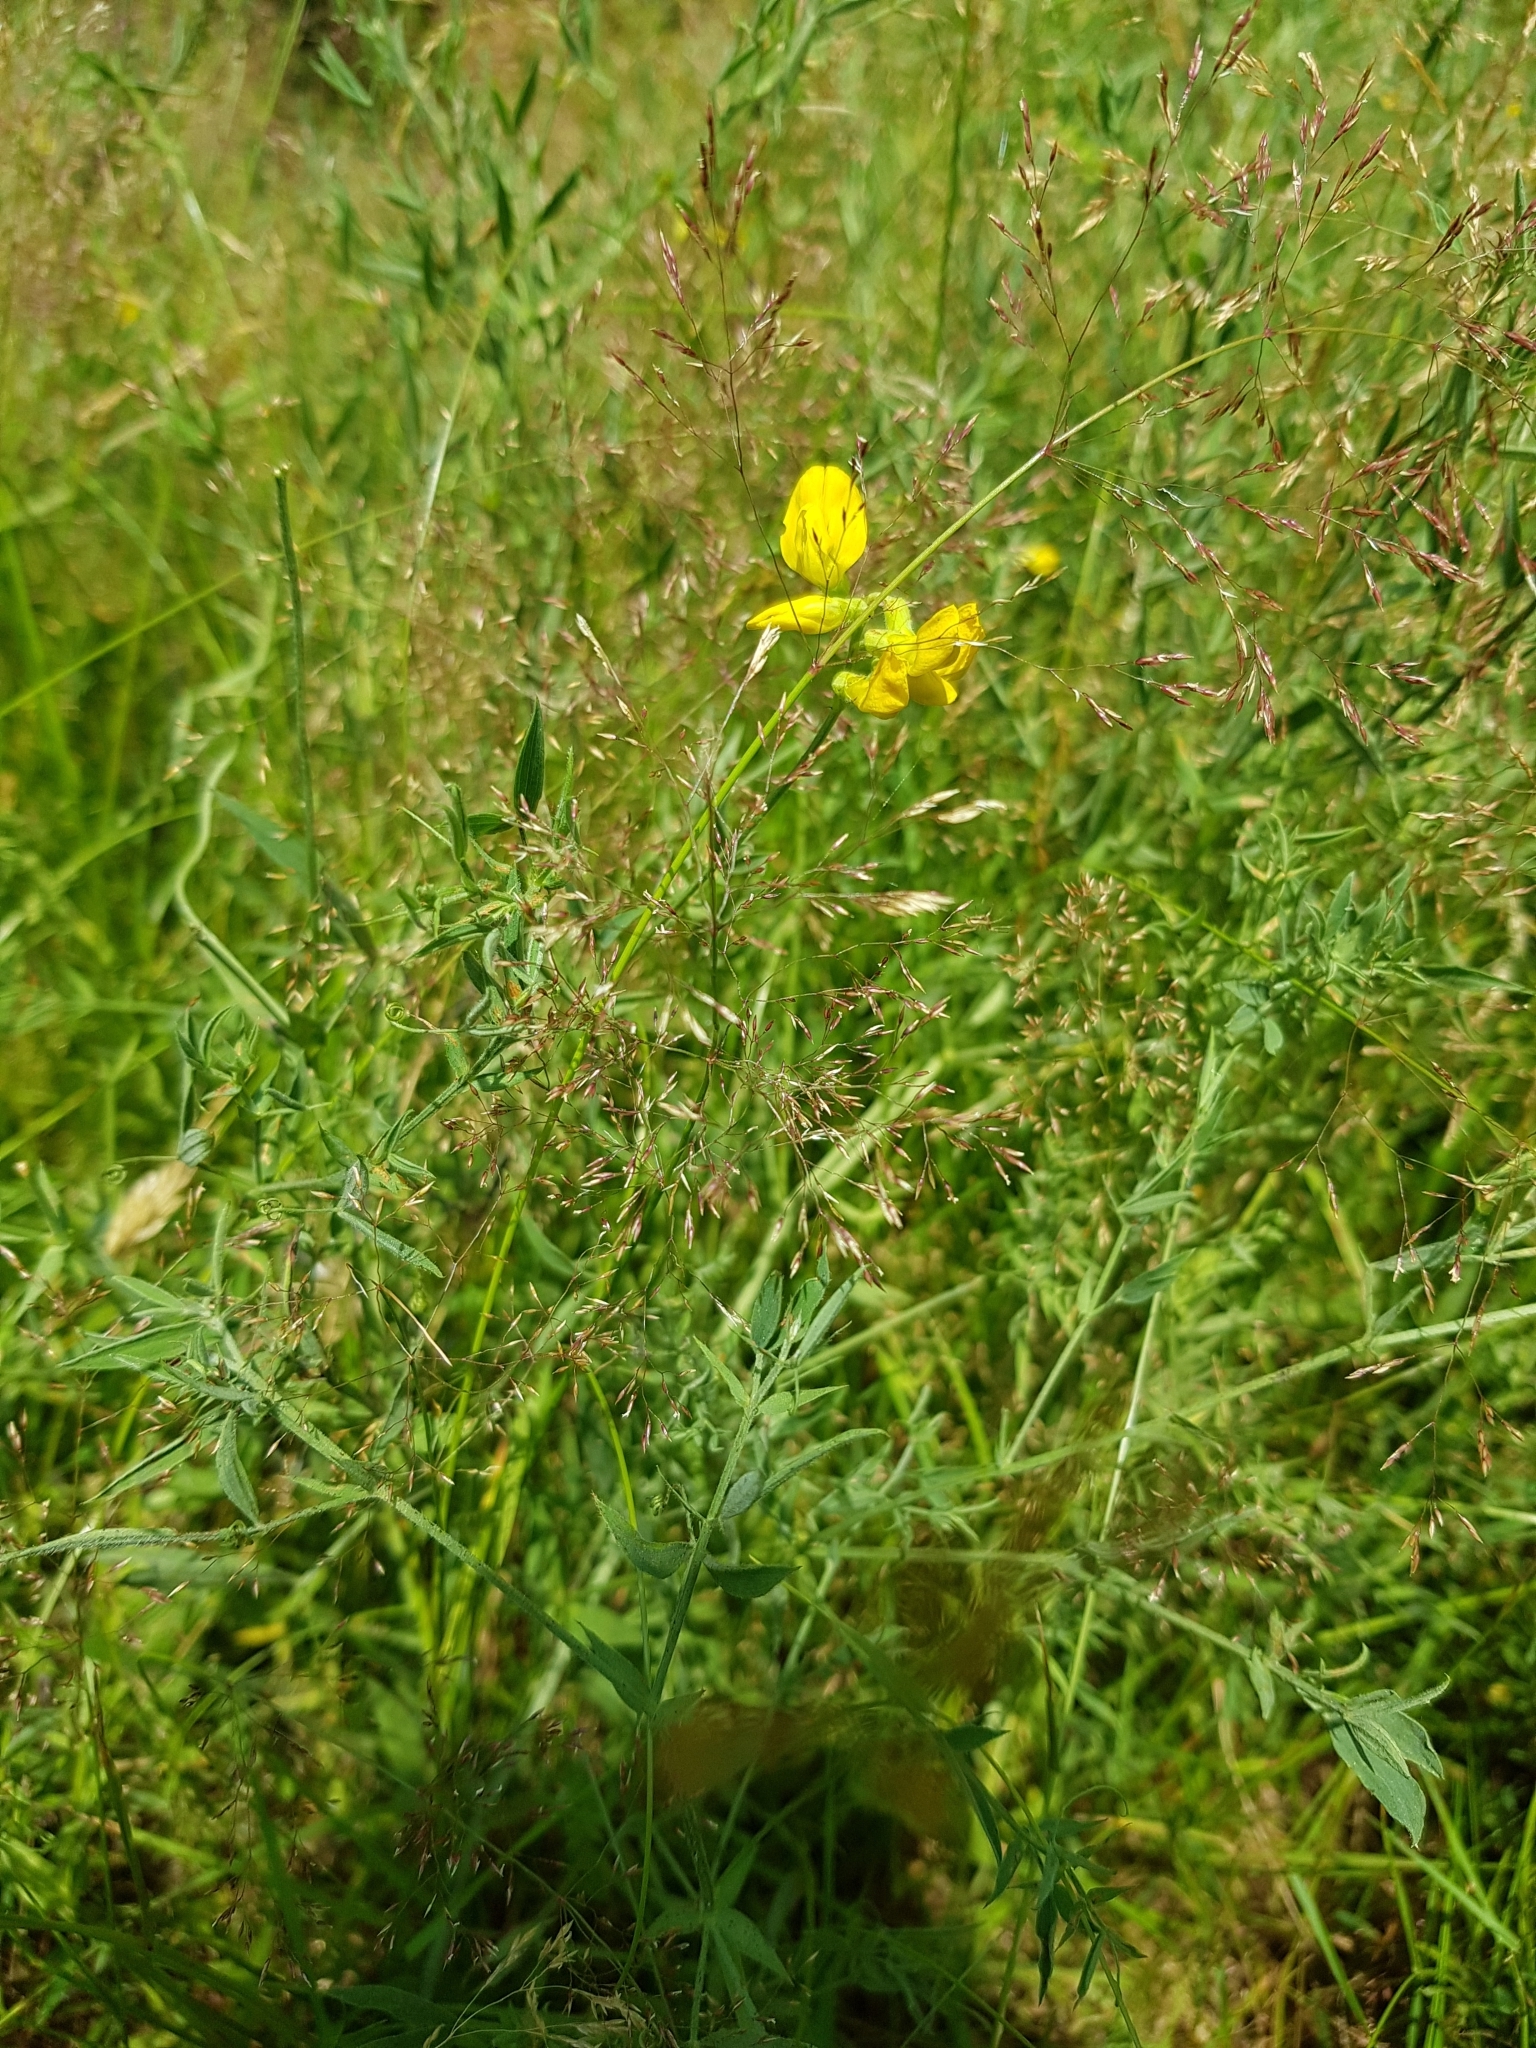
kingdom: Plantae
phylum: Tracheophyta
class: Magnoliopsida
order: Fabales
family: Fabaceae
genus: Lathyrus
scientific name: Lathyrus pratensis
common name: Meadow vetchling
